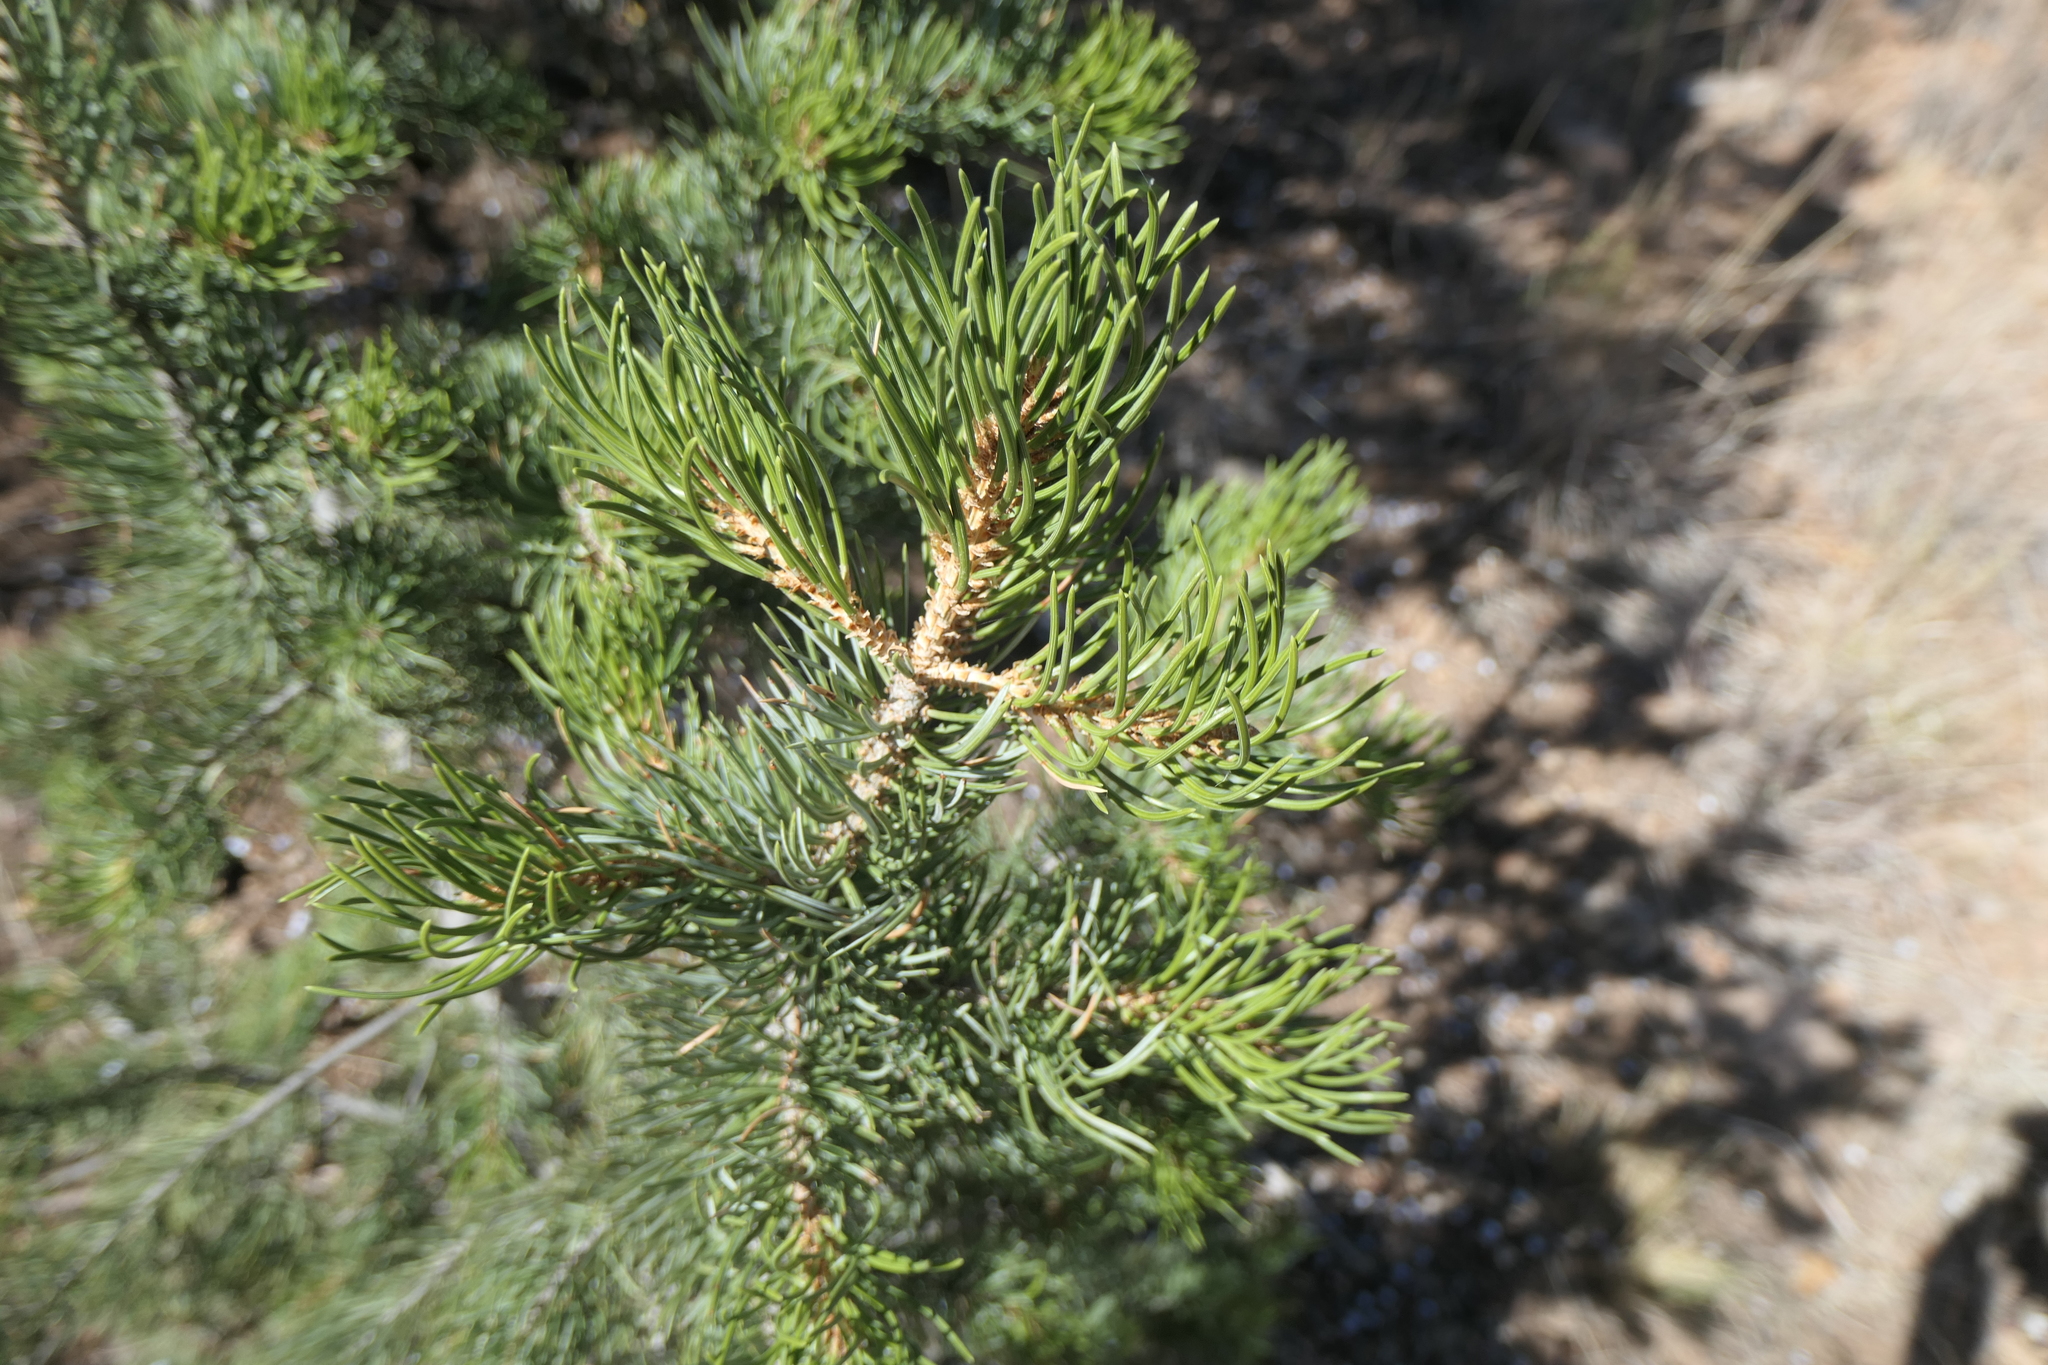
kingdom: Plantae
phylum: Tracheophyta
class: Pinopsida
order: Pinales
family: Pinaceae
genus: Pinus
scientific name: Pinus edulis
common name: Colorado pinyon
